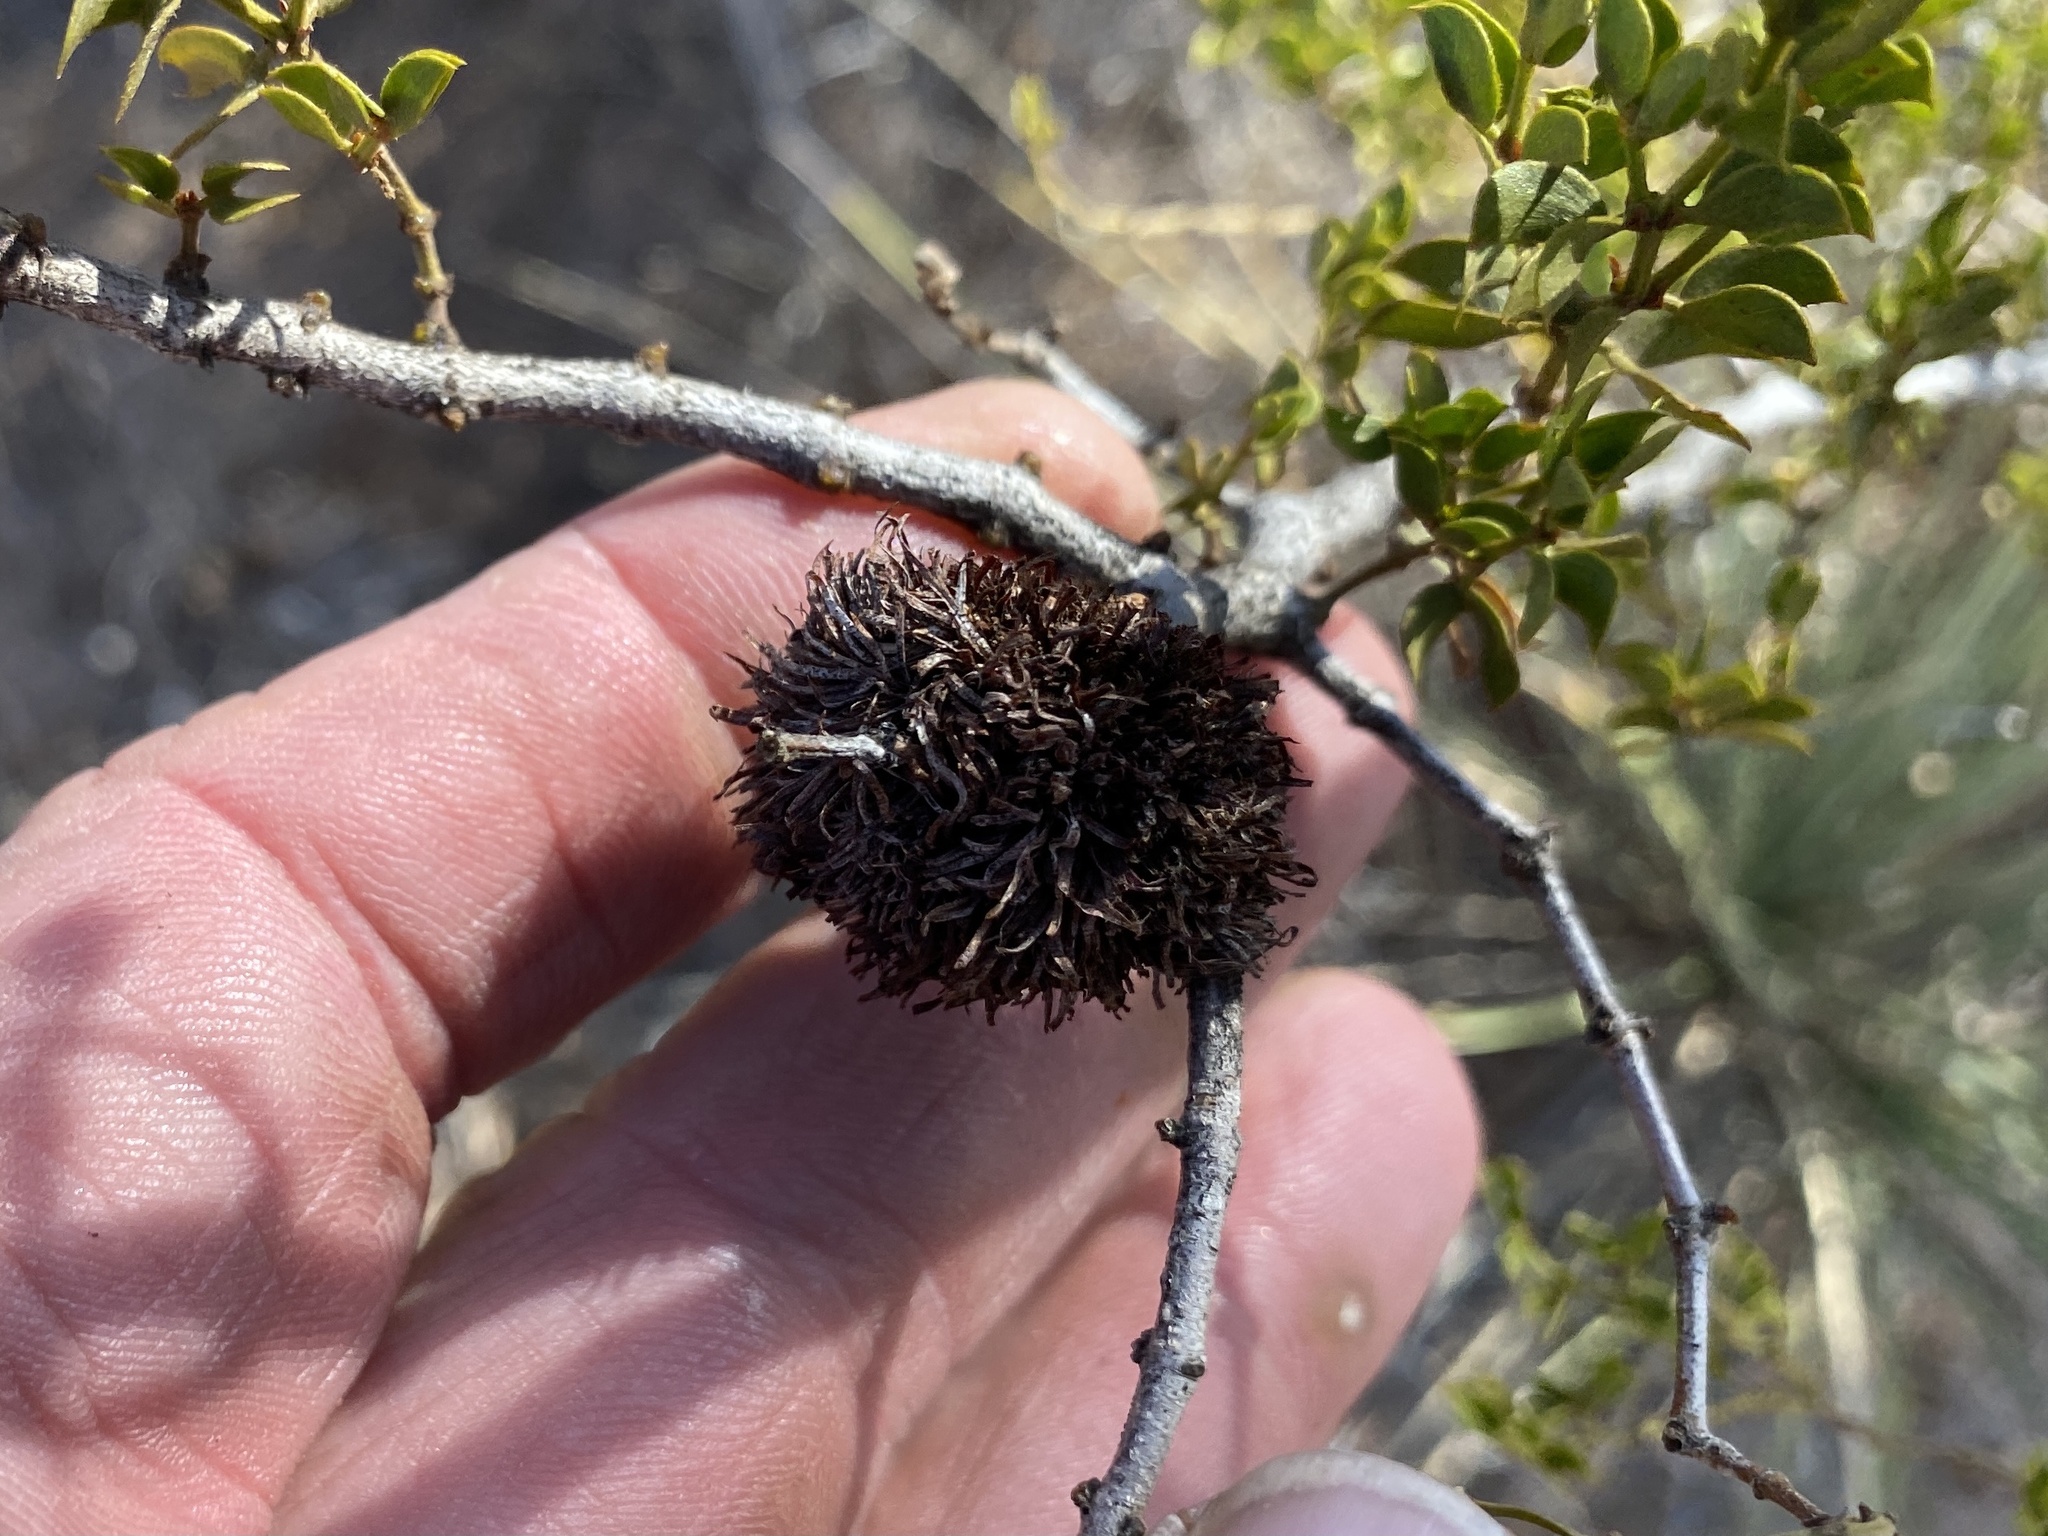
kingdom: Animalia
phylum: Arthropoda
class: Insecta
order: Diptera
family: Cecidomyiidae
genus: Asphondylia
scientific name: Asphondylia auripila
